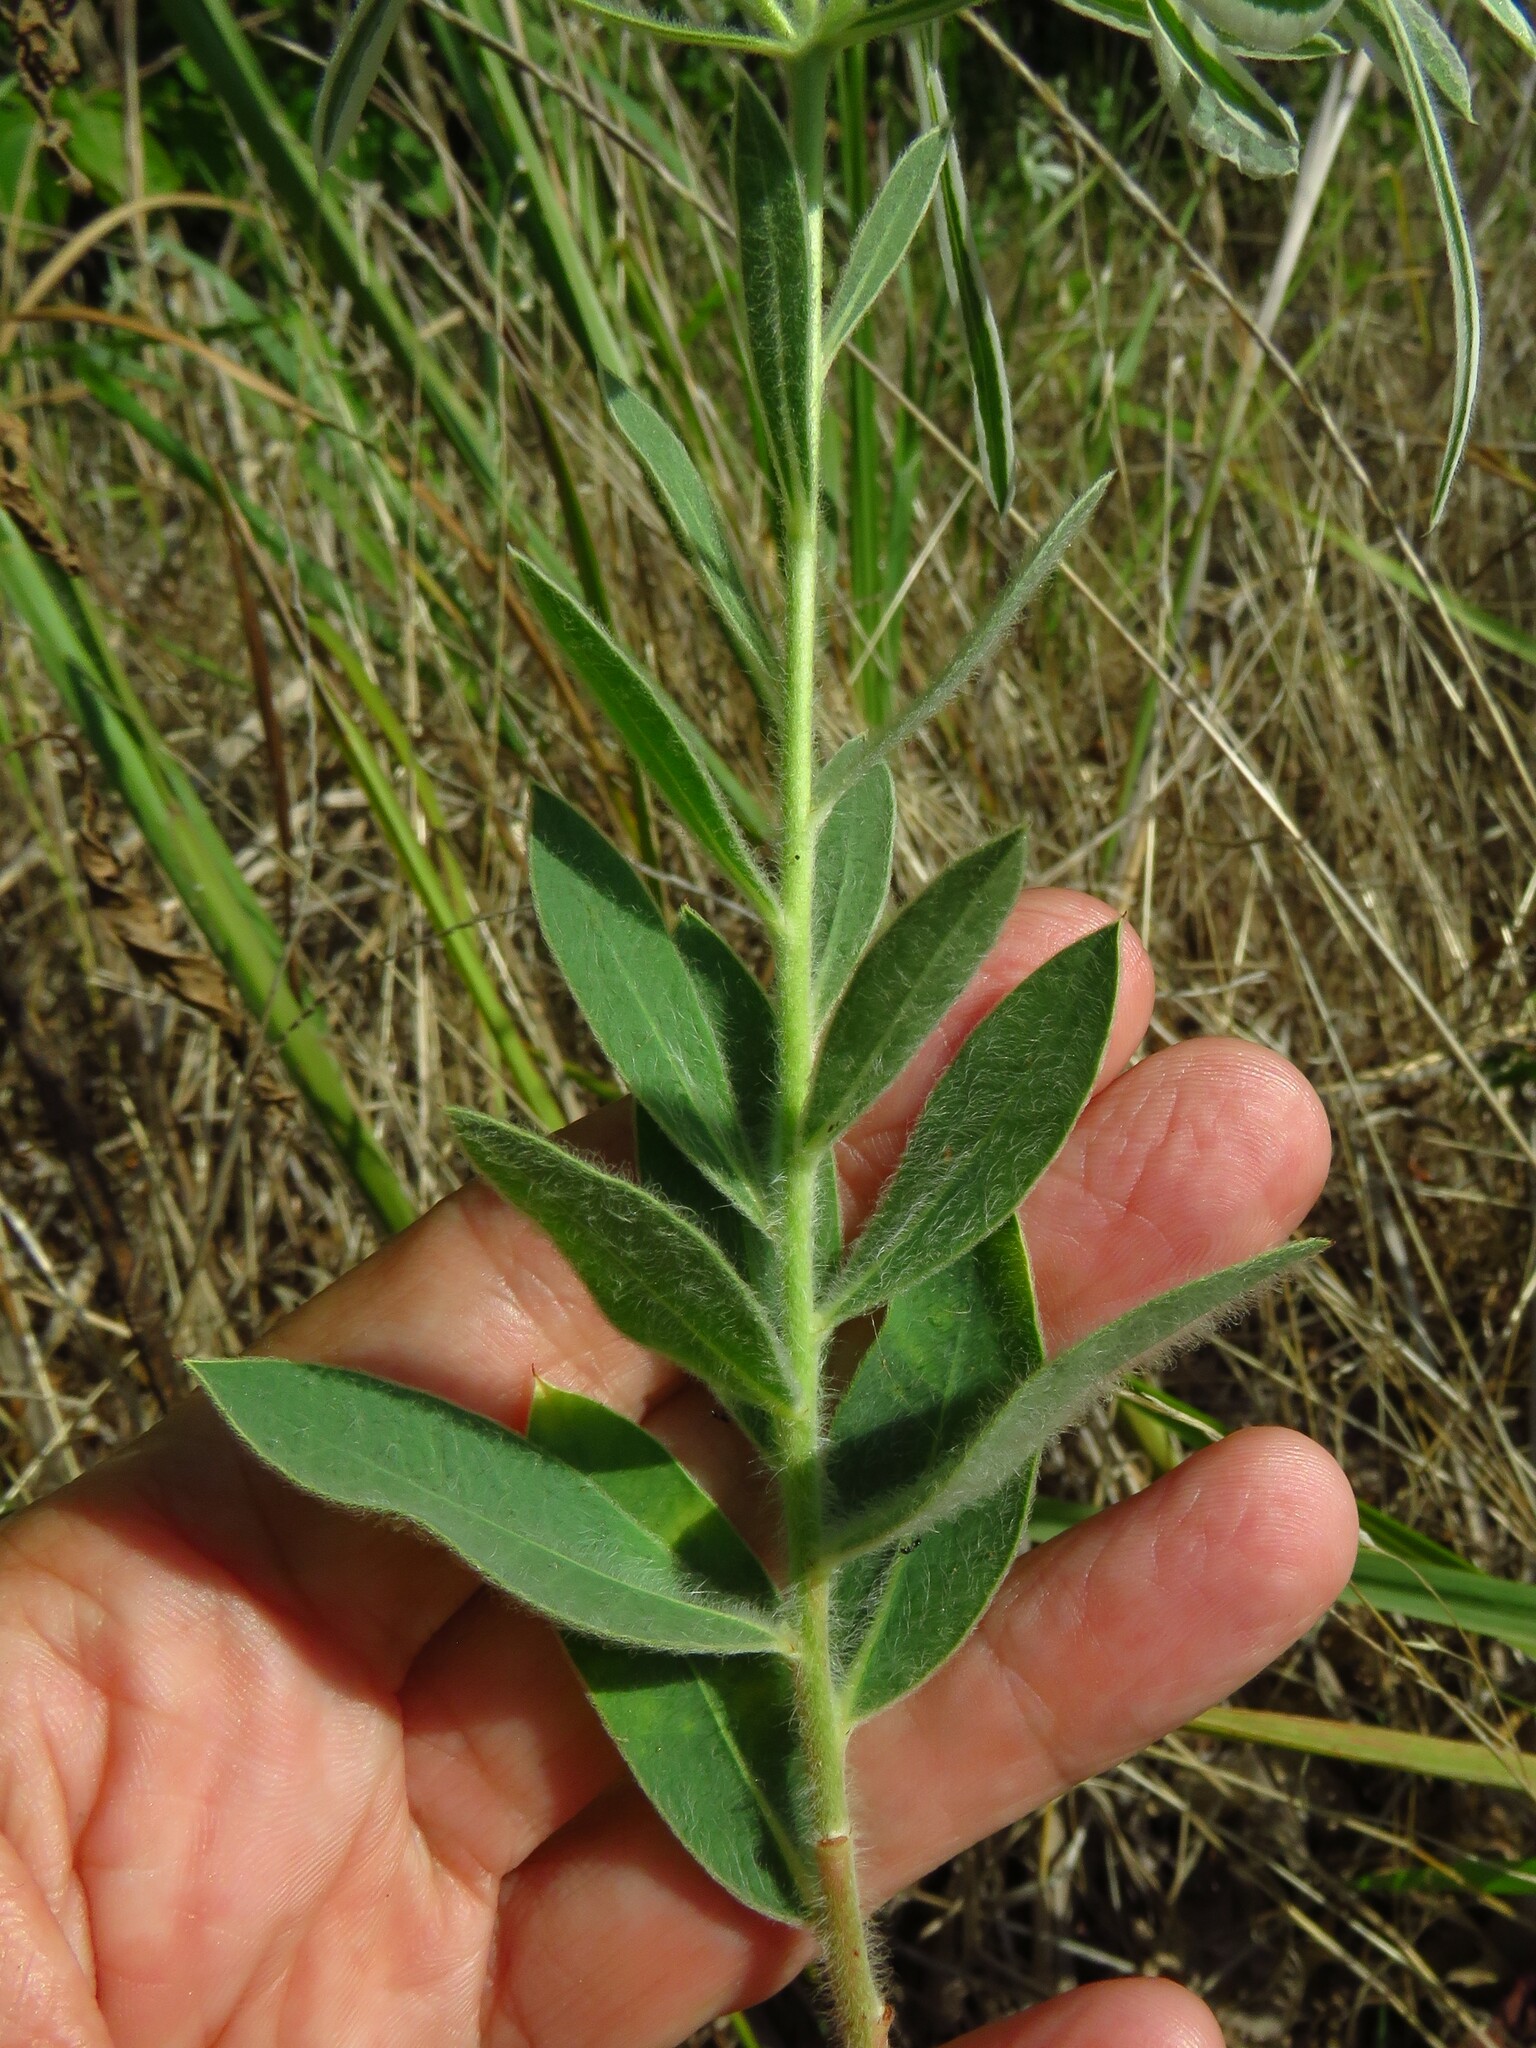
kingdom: Plantae
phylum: Tracheophyta
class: Magnoliopsida
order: Malpighiales
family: Euphorbiaceae
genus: Euphorbia
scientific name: Euphorbia bicolor
